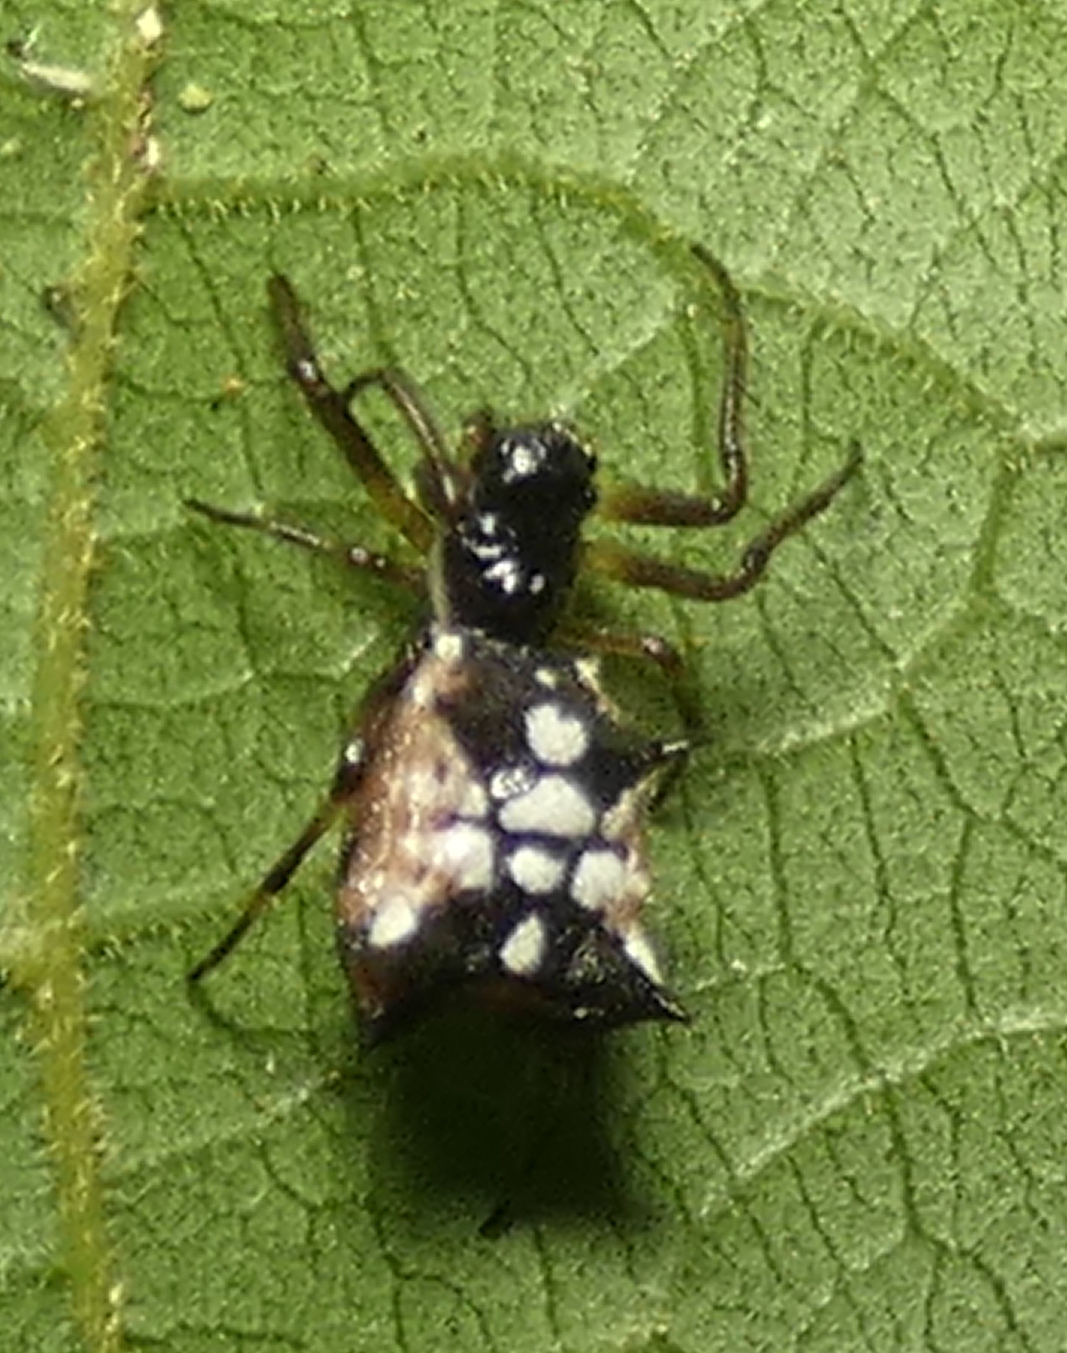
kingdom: Animalia
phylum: Arthropoda
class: Arachnida
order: Araneae
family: Araneidae
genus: Micrathena
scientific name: Micrathena picta
